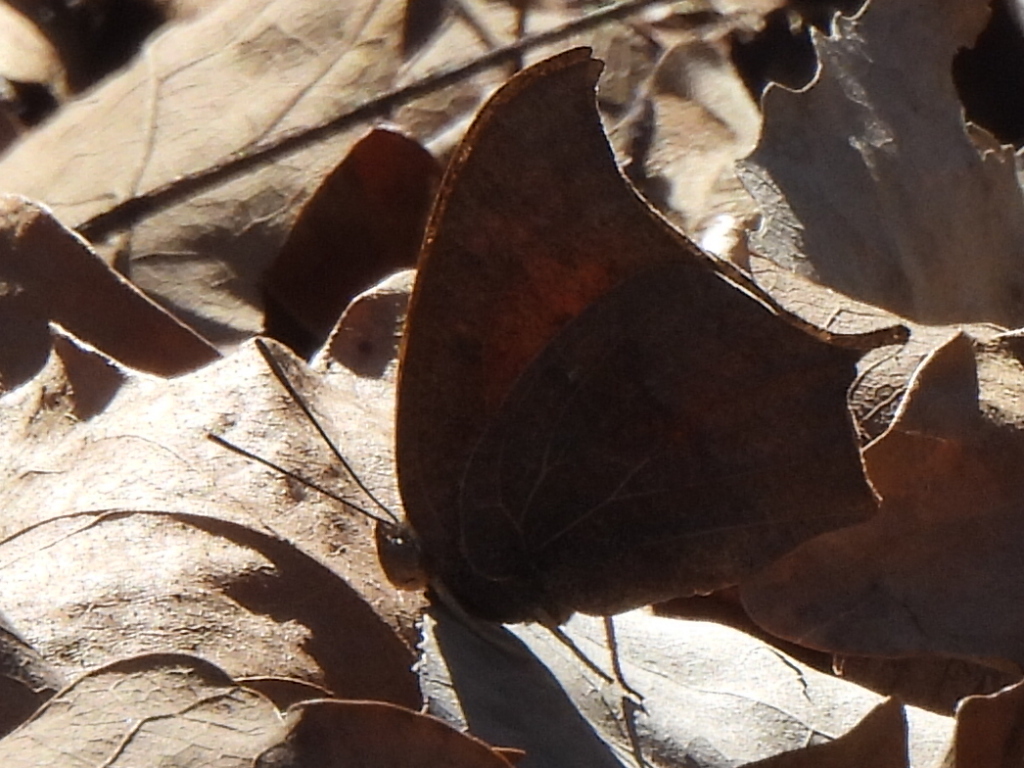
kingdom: Animalia
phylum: Arthropoda
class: Insecta
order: Lepidoptera
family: Nymphalidae
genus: Anaea
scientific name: Anaea andria
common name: Goatweed leafwing
